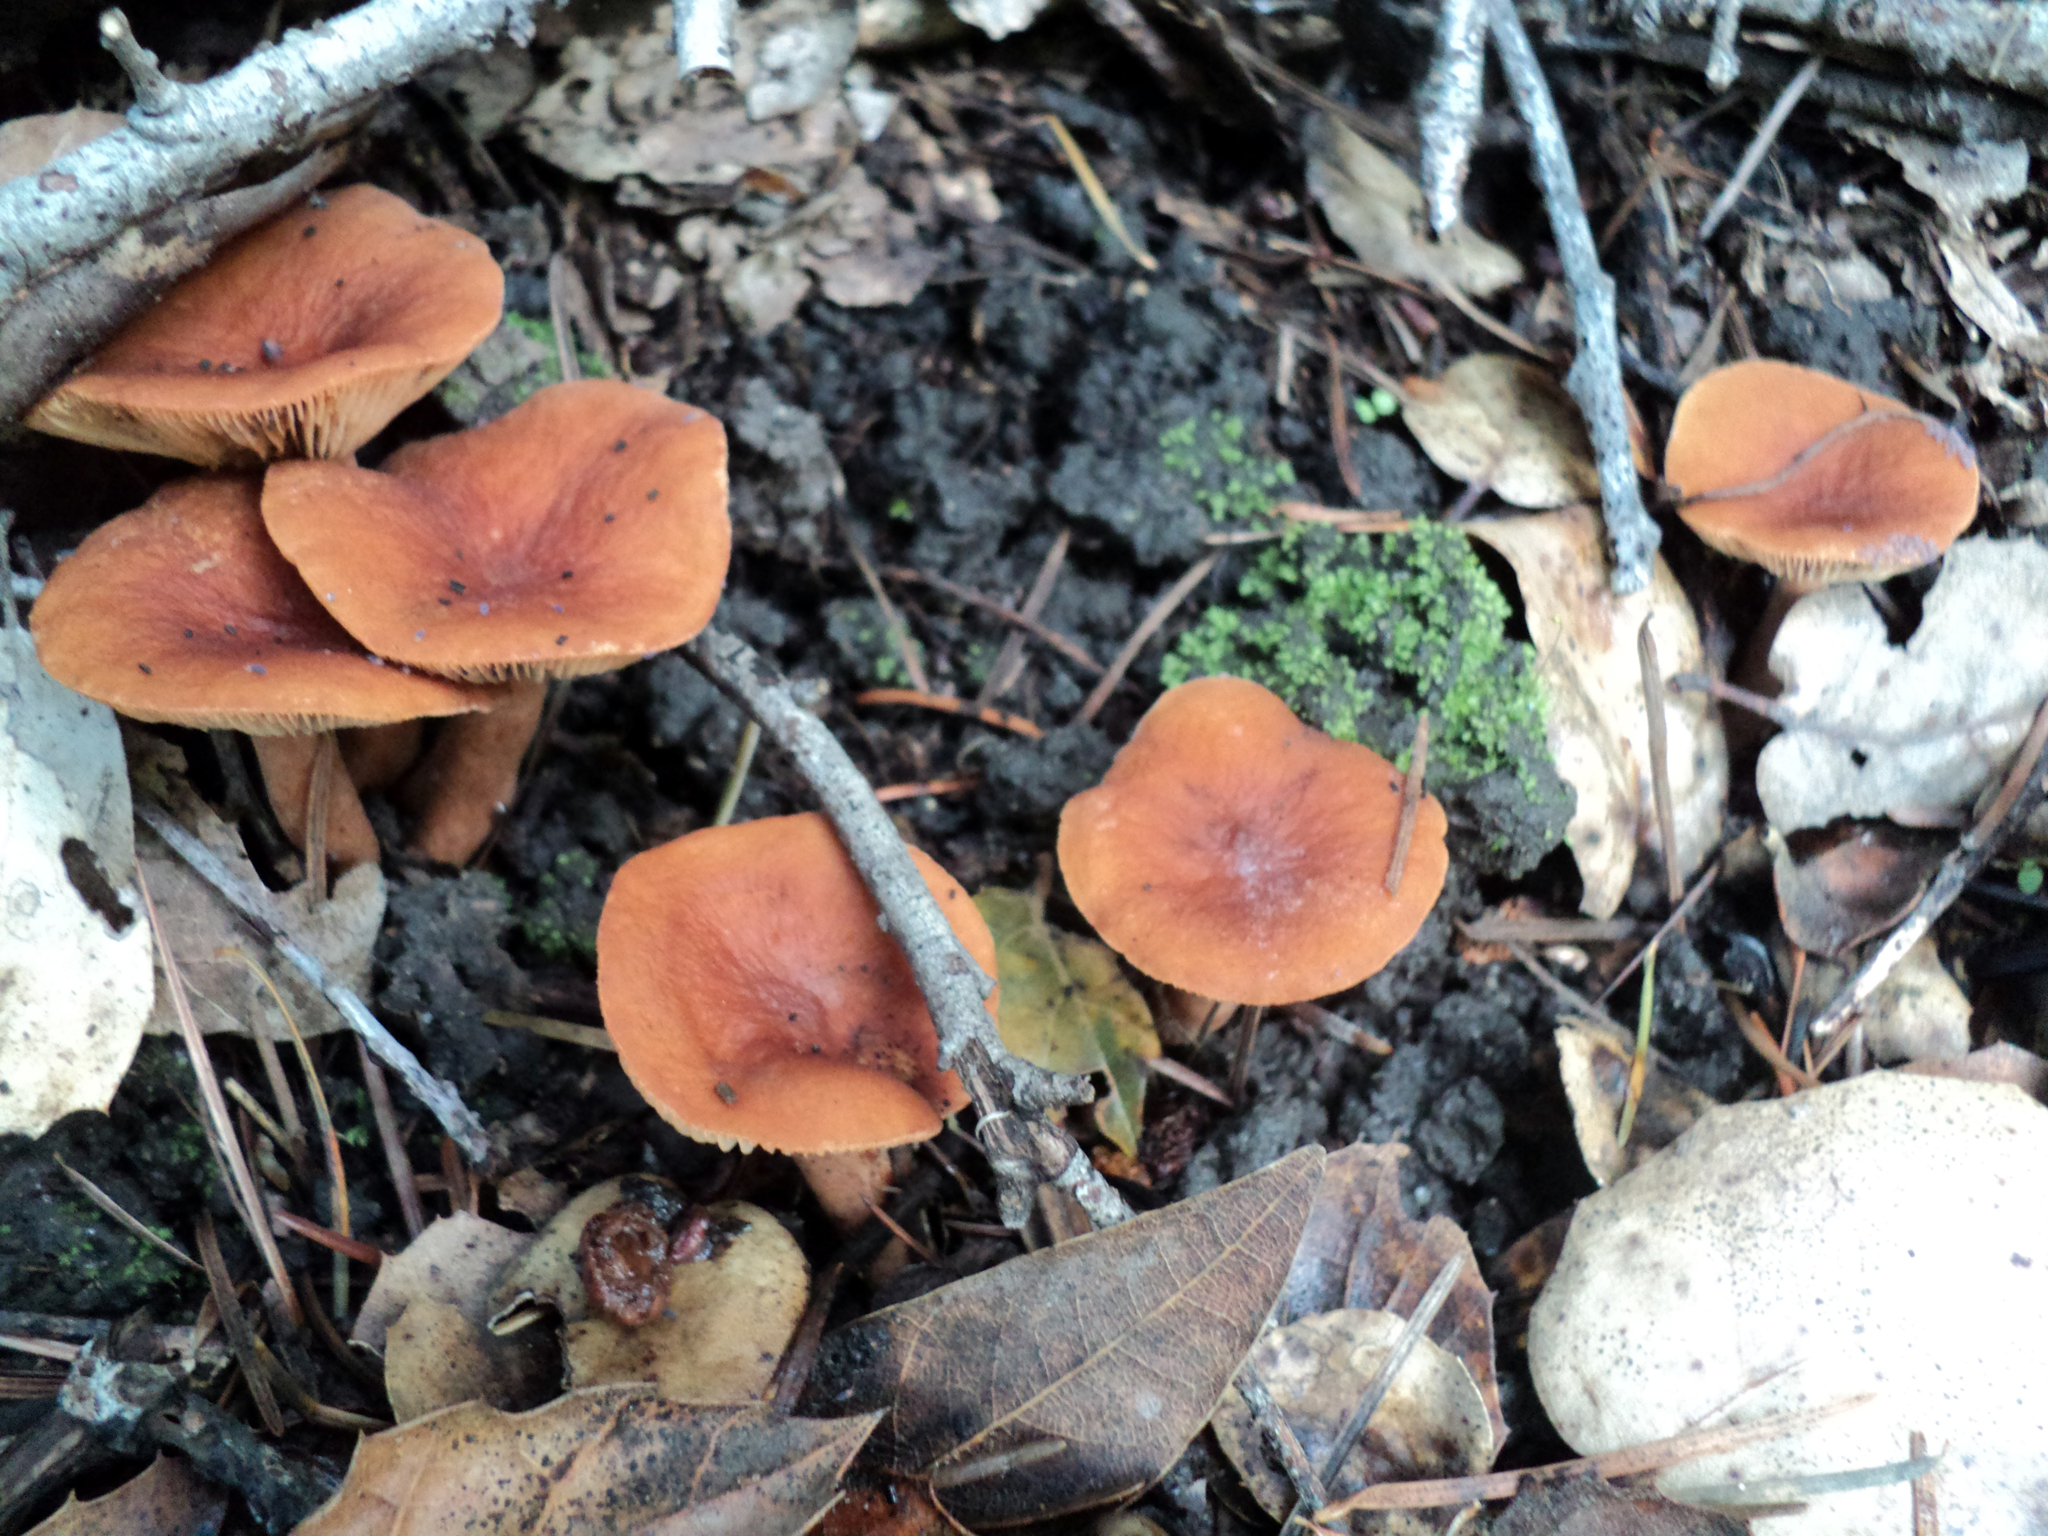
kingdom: Fungi
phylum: Basidiomycota
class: Agaricomycetes
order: Russulales
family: Russulaceae
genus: Lactarius
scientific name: Lactarius rubidus
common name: Candy cap
